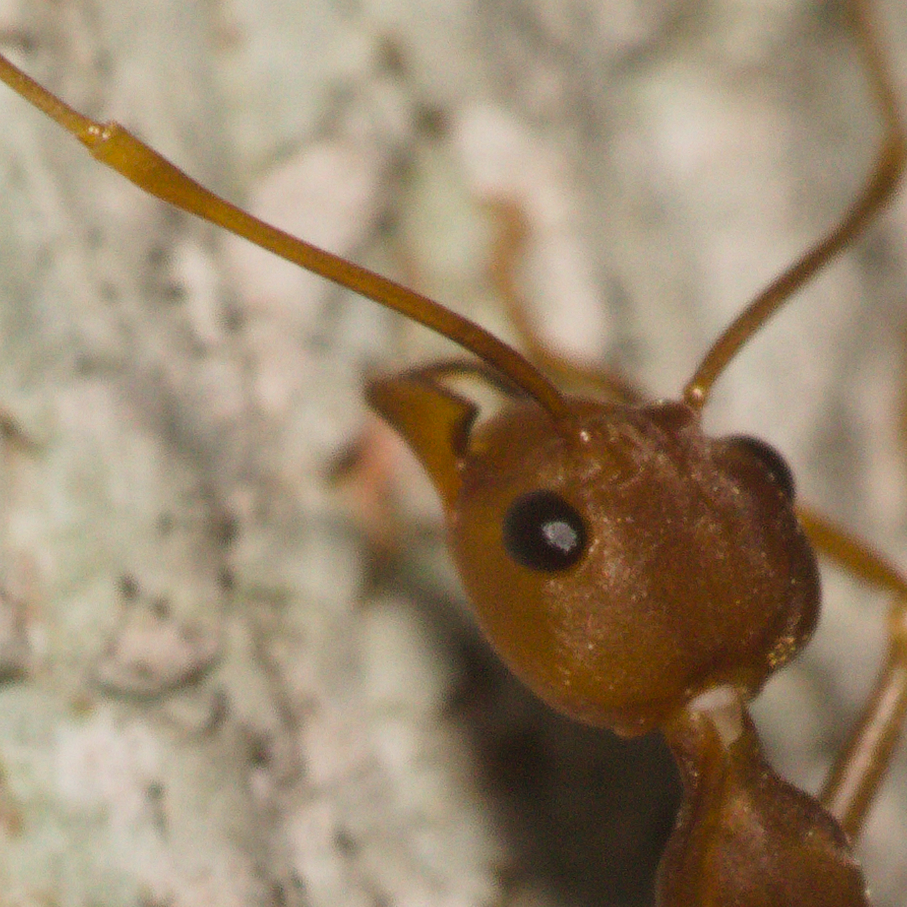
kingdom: Animalia
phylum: Arthropoda
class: Insecta
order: Hymenoptera
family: Formicidae
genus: Oecophylla
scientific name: Oecophylla smaragdina
